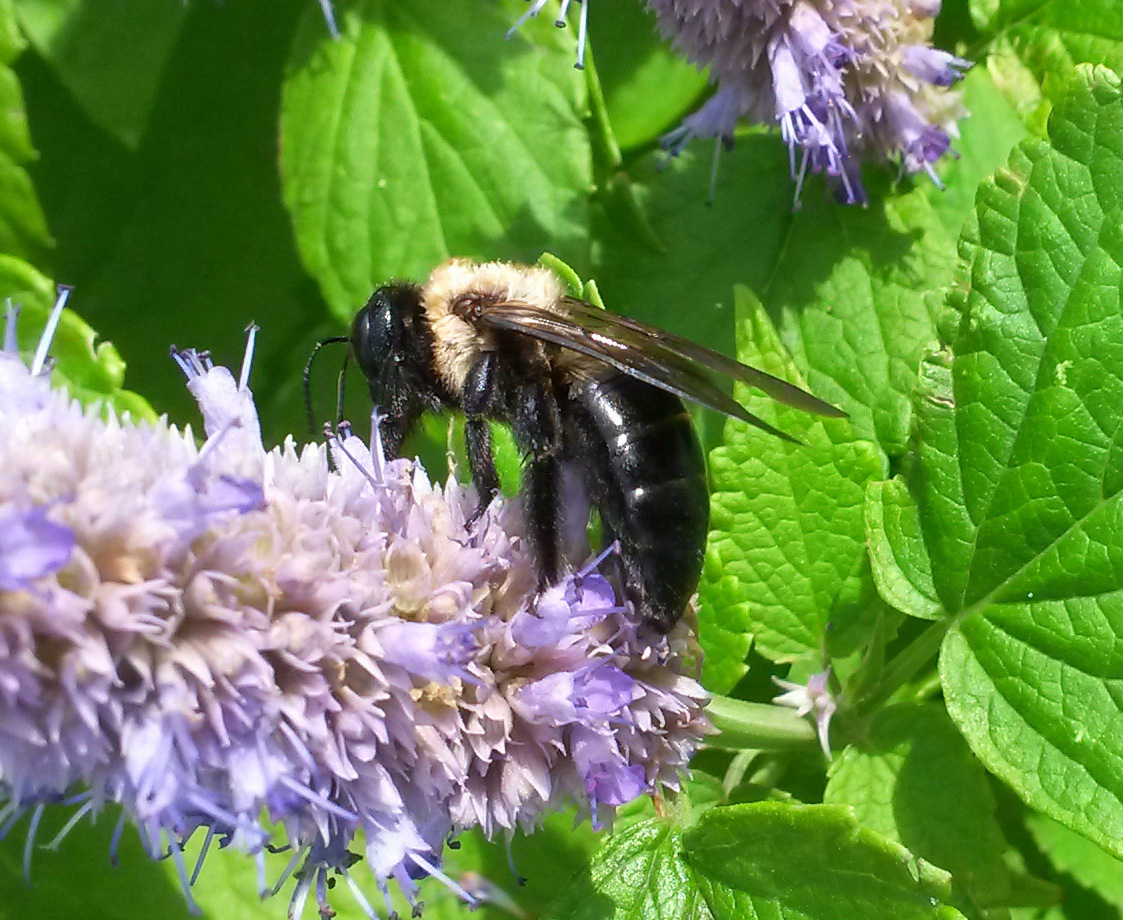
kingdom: Animalia
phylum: Arthropoda
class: Insecta
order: Hymenoptera
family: Apidae
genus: Xylocopa
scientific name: Xylocopa virginica
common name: Carpenter bee
